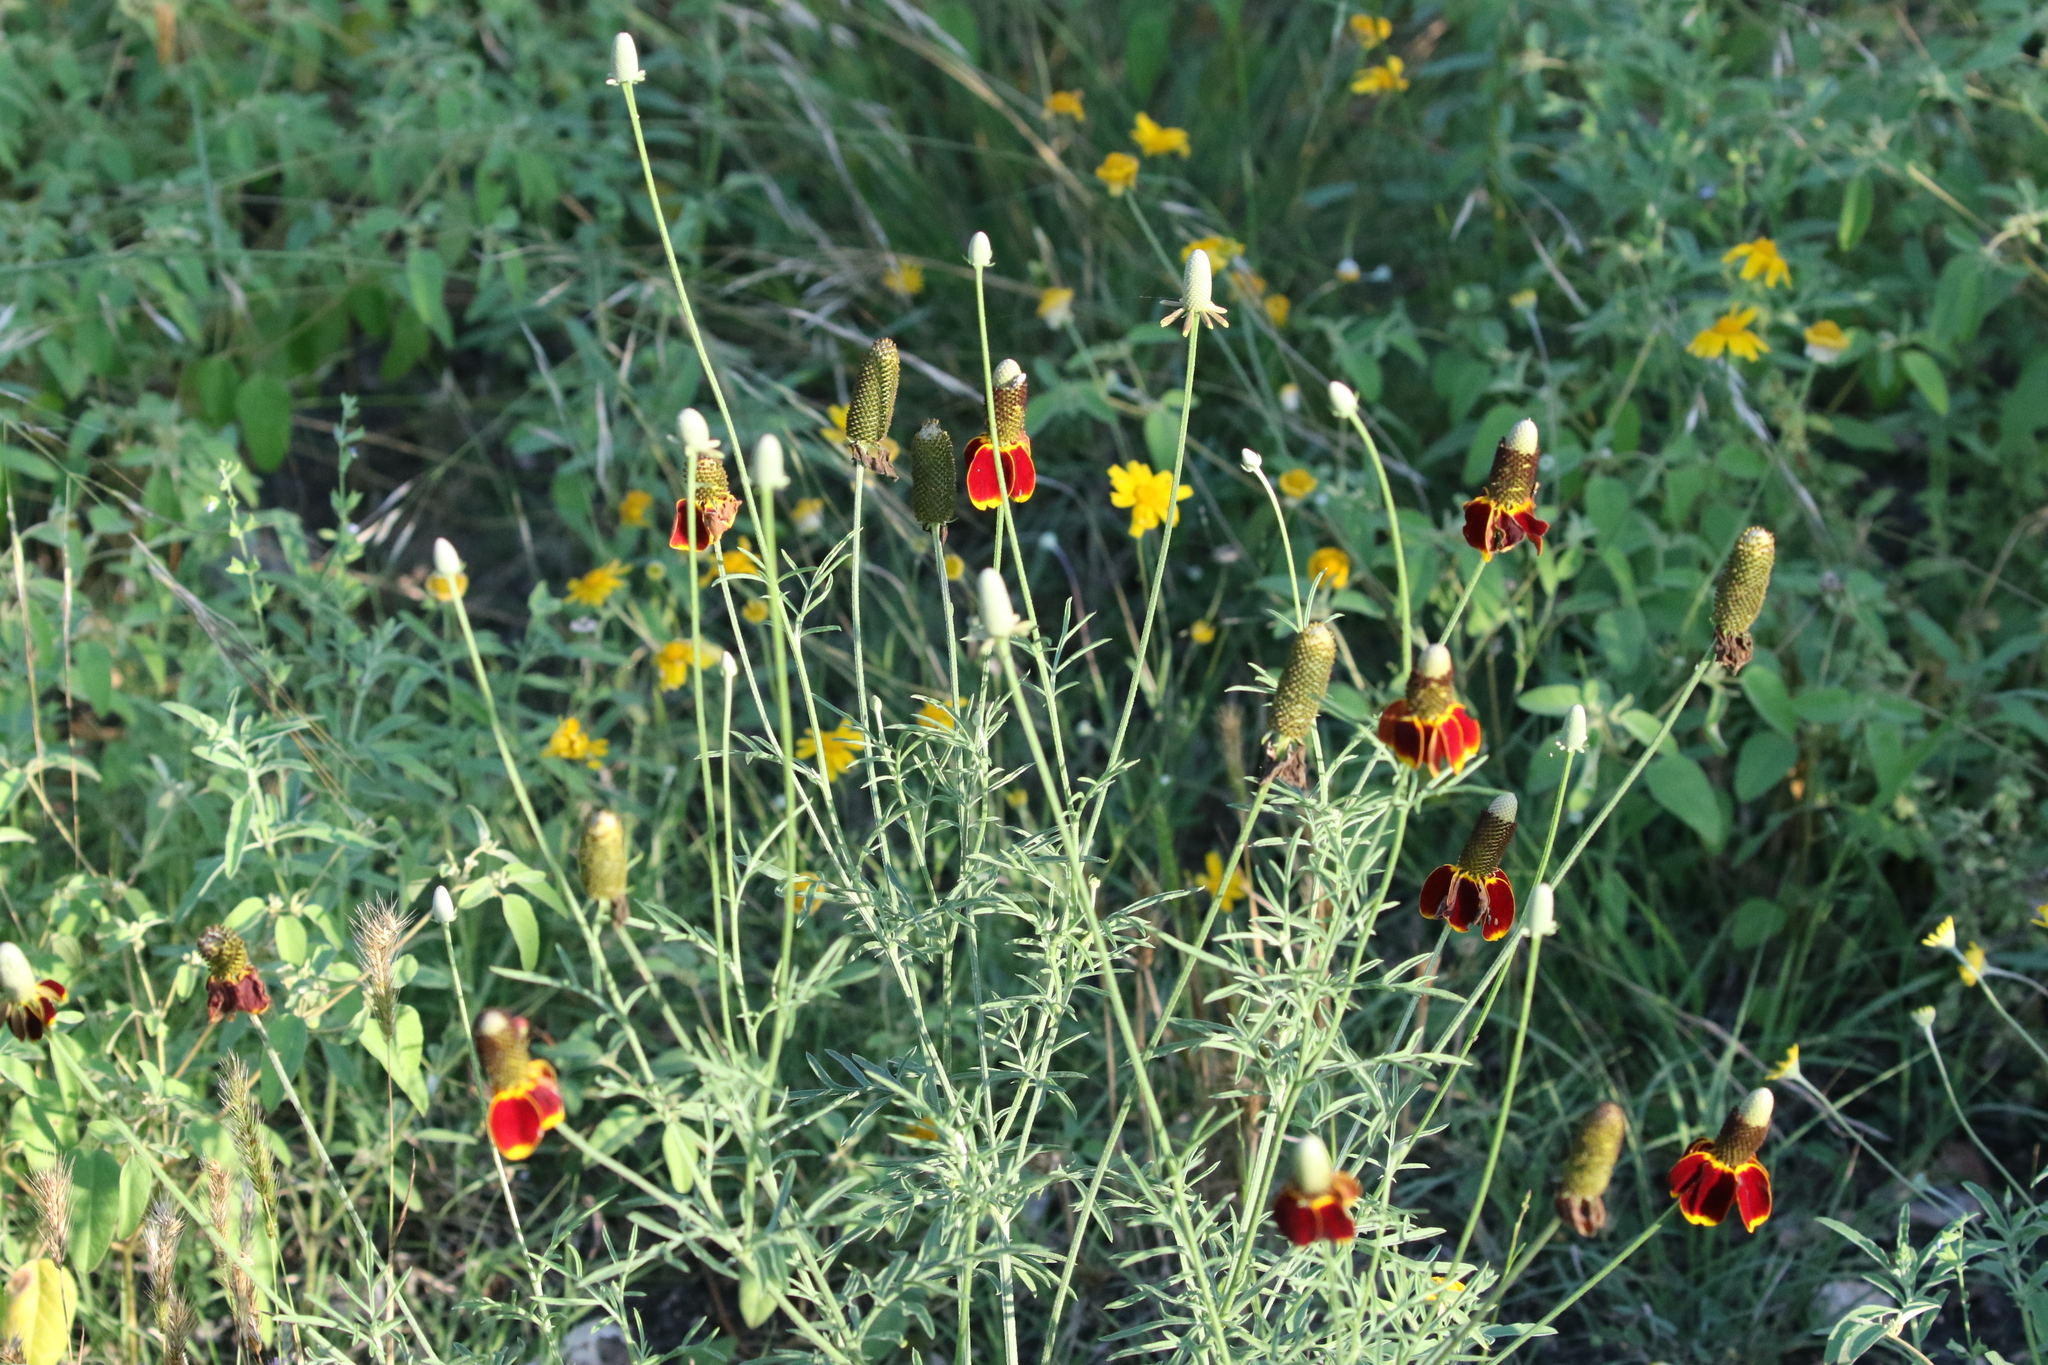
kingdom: Plantae
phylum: Tracheophyta
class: Magnoliopsida
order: Asterales
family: Asteraceae
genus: Ratibida
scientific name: Ratibida columnifera
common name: Prairie coneflower
